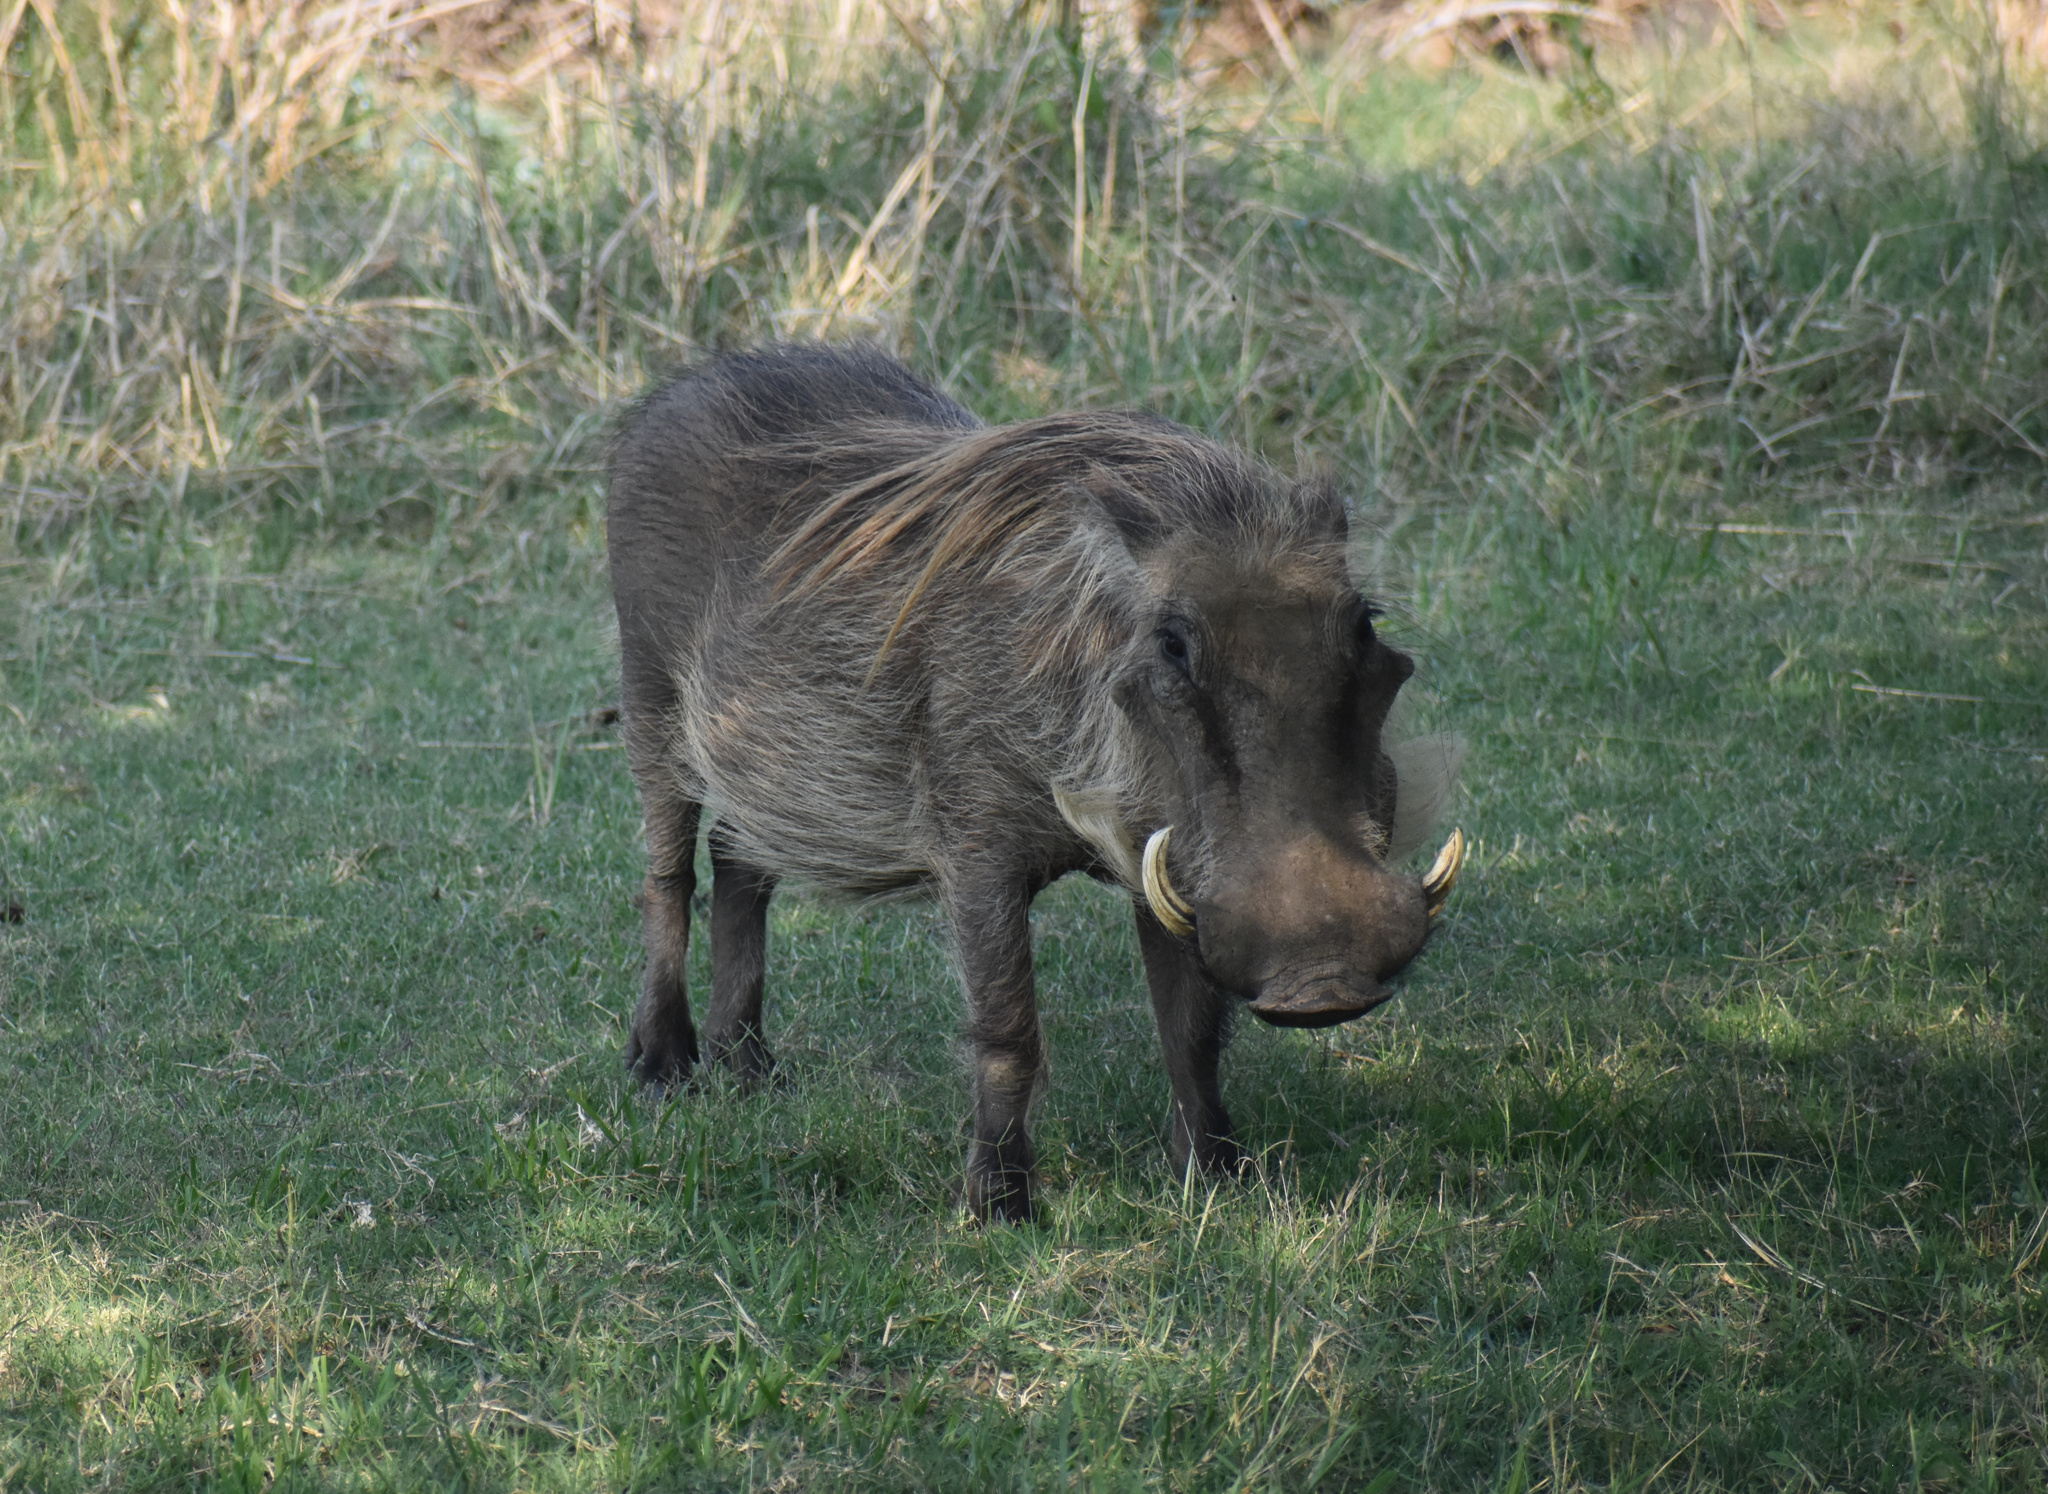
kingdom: Animalia
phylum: Chordata
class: Mammalia
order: Artiodactyla
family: Suidae
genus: Phacochoerus
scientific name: Phacochoerus africanus
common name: Common warthog
